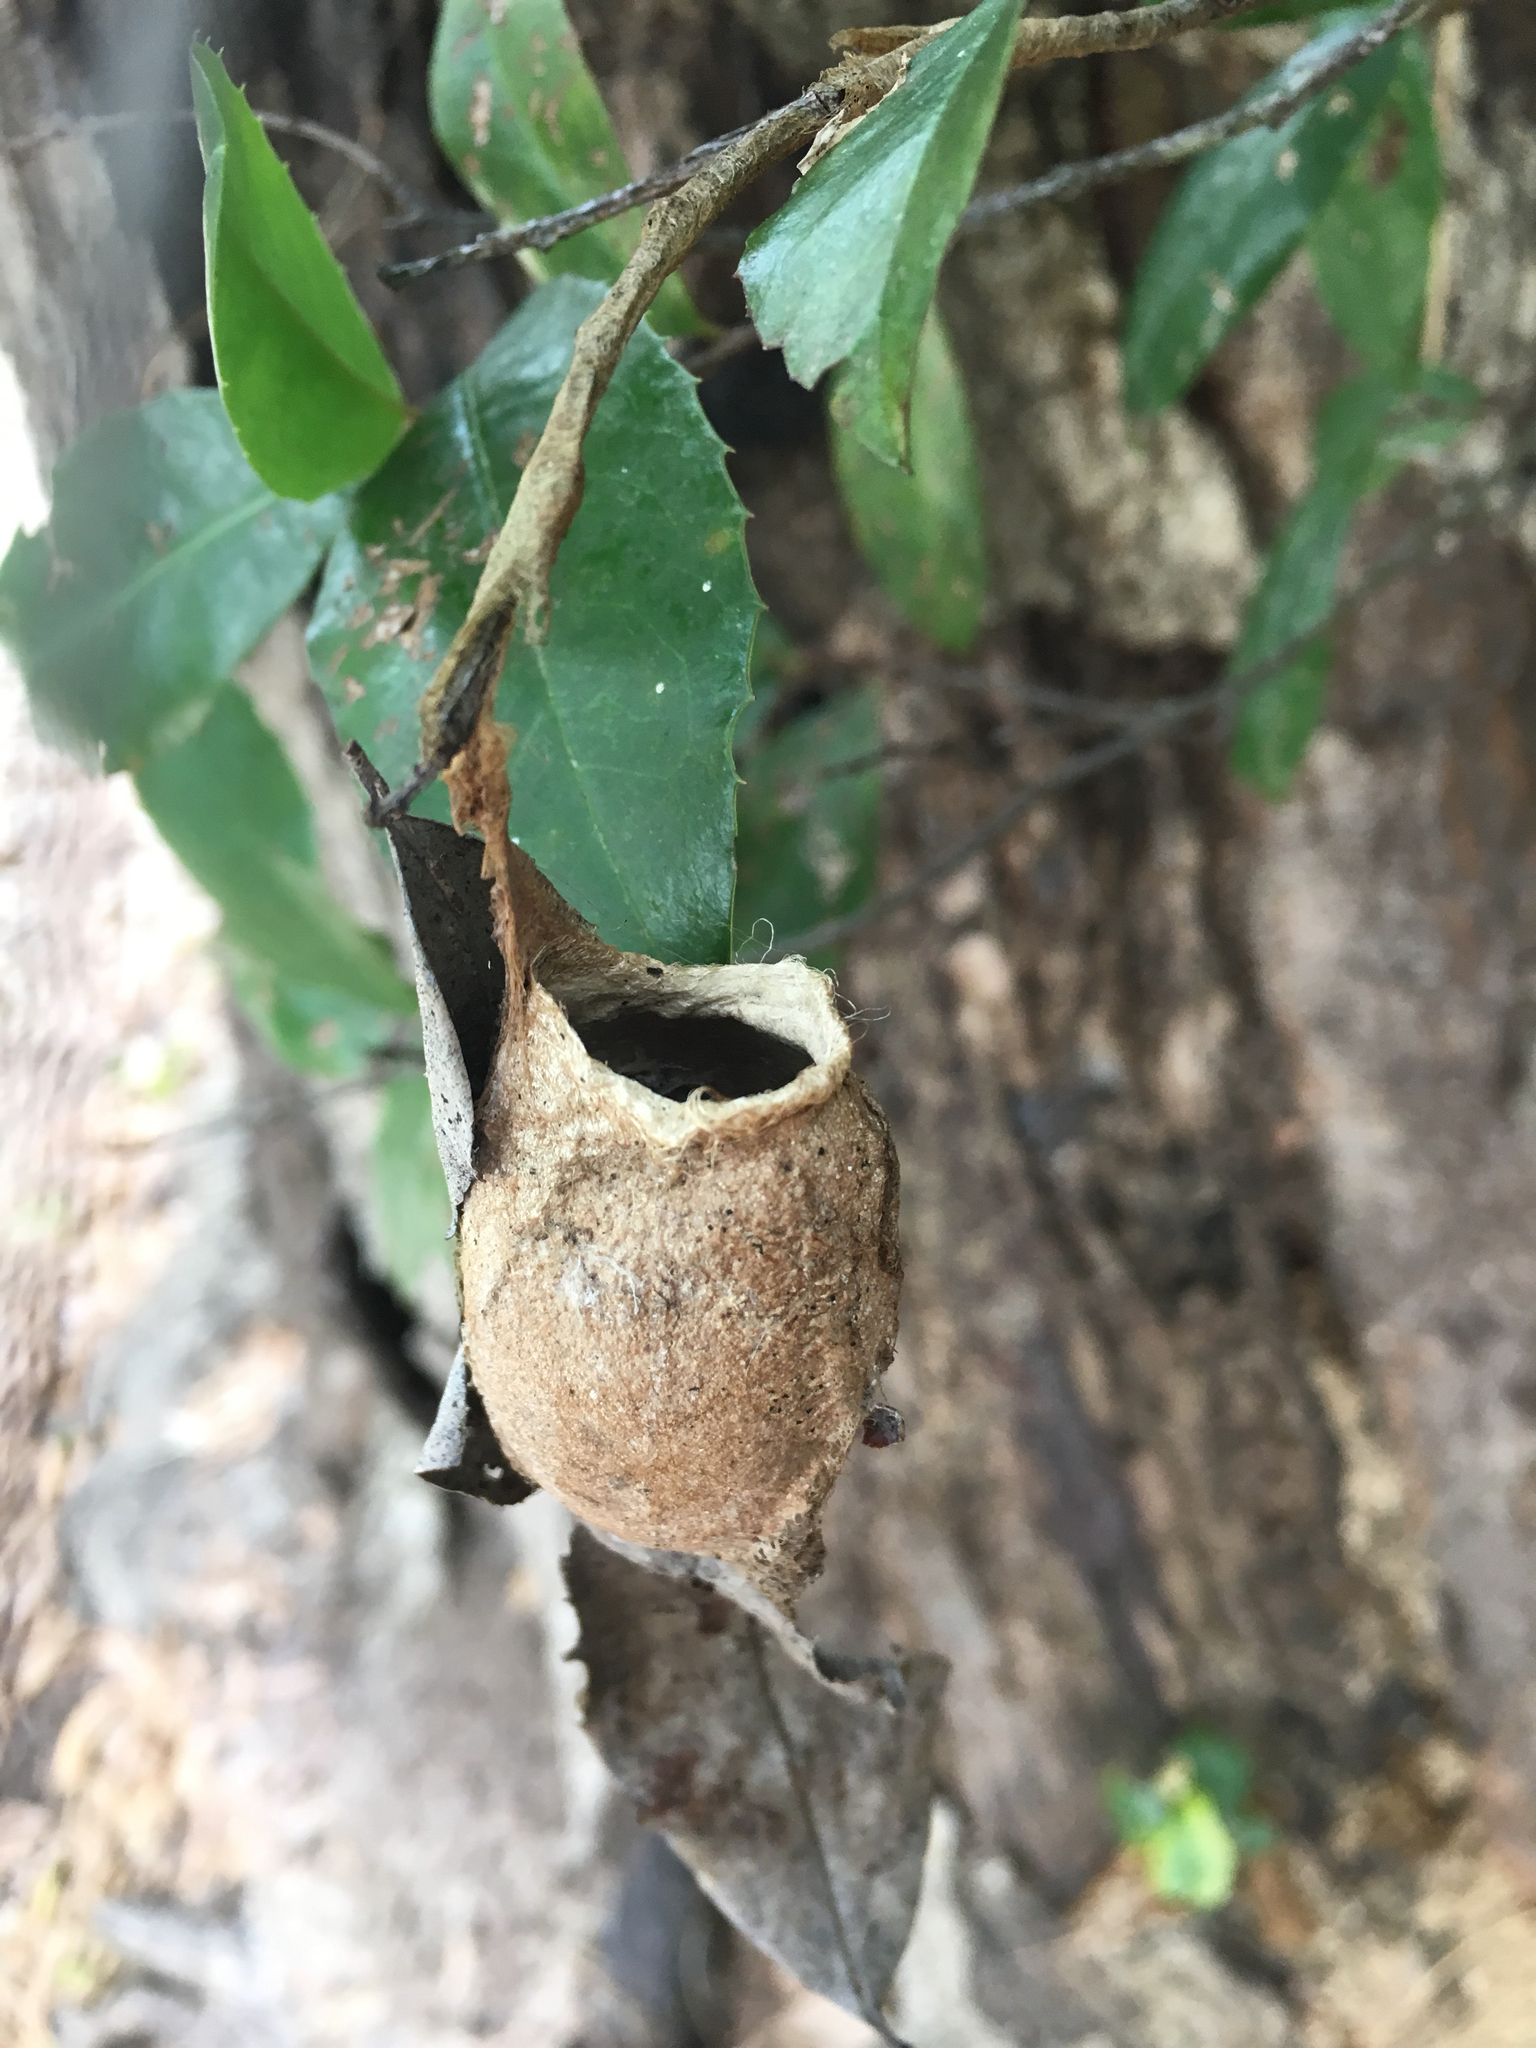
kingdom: Animalia
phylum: Arthropoda
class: Insecta
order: Lepidoptera
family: Saturniidae
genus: Antheraea
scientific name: Antheraea polyphemus
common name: Polyphemus moth
